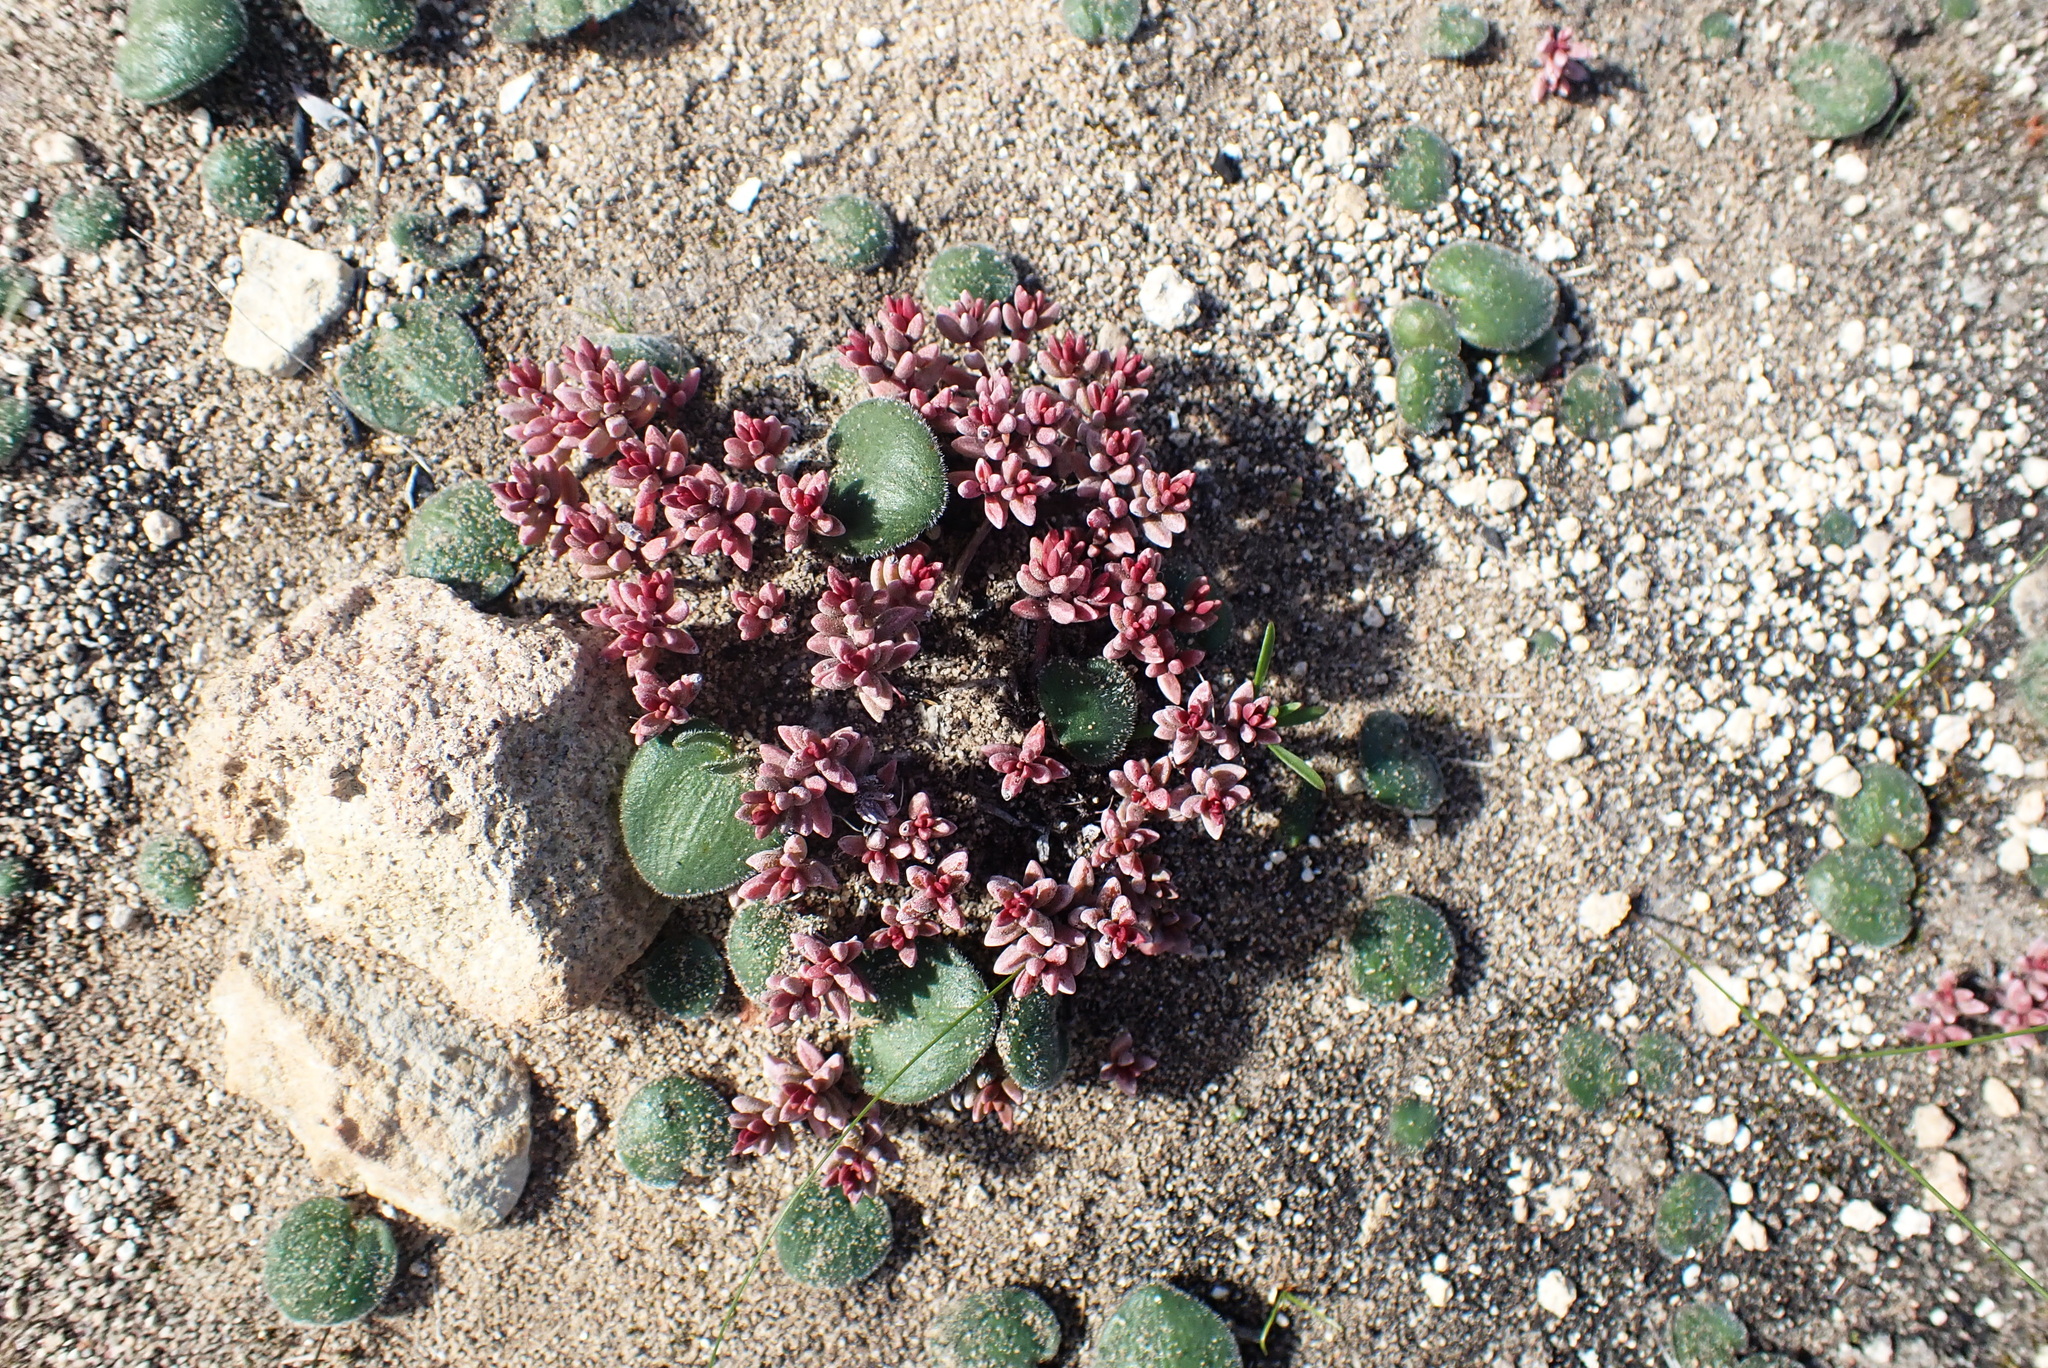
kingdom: Plantae
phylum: Tracheophyta
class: Magnoliopsida
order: Saxifragales
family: Crassulaceae
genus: Crassula
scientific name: Crassula expansa
